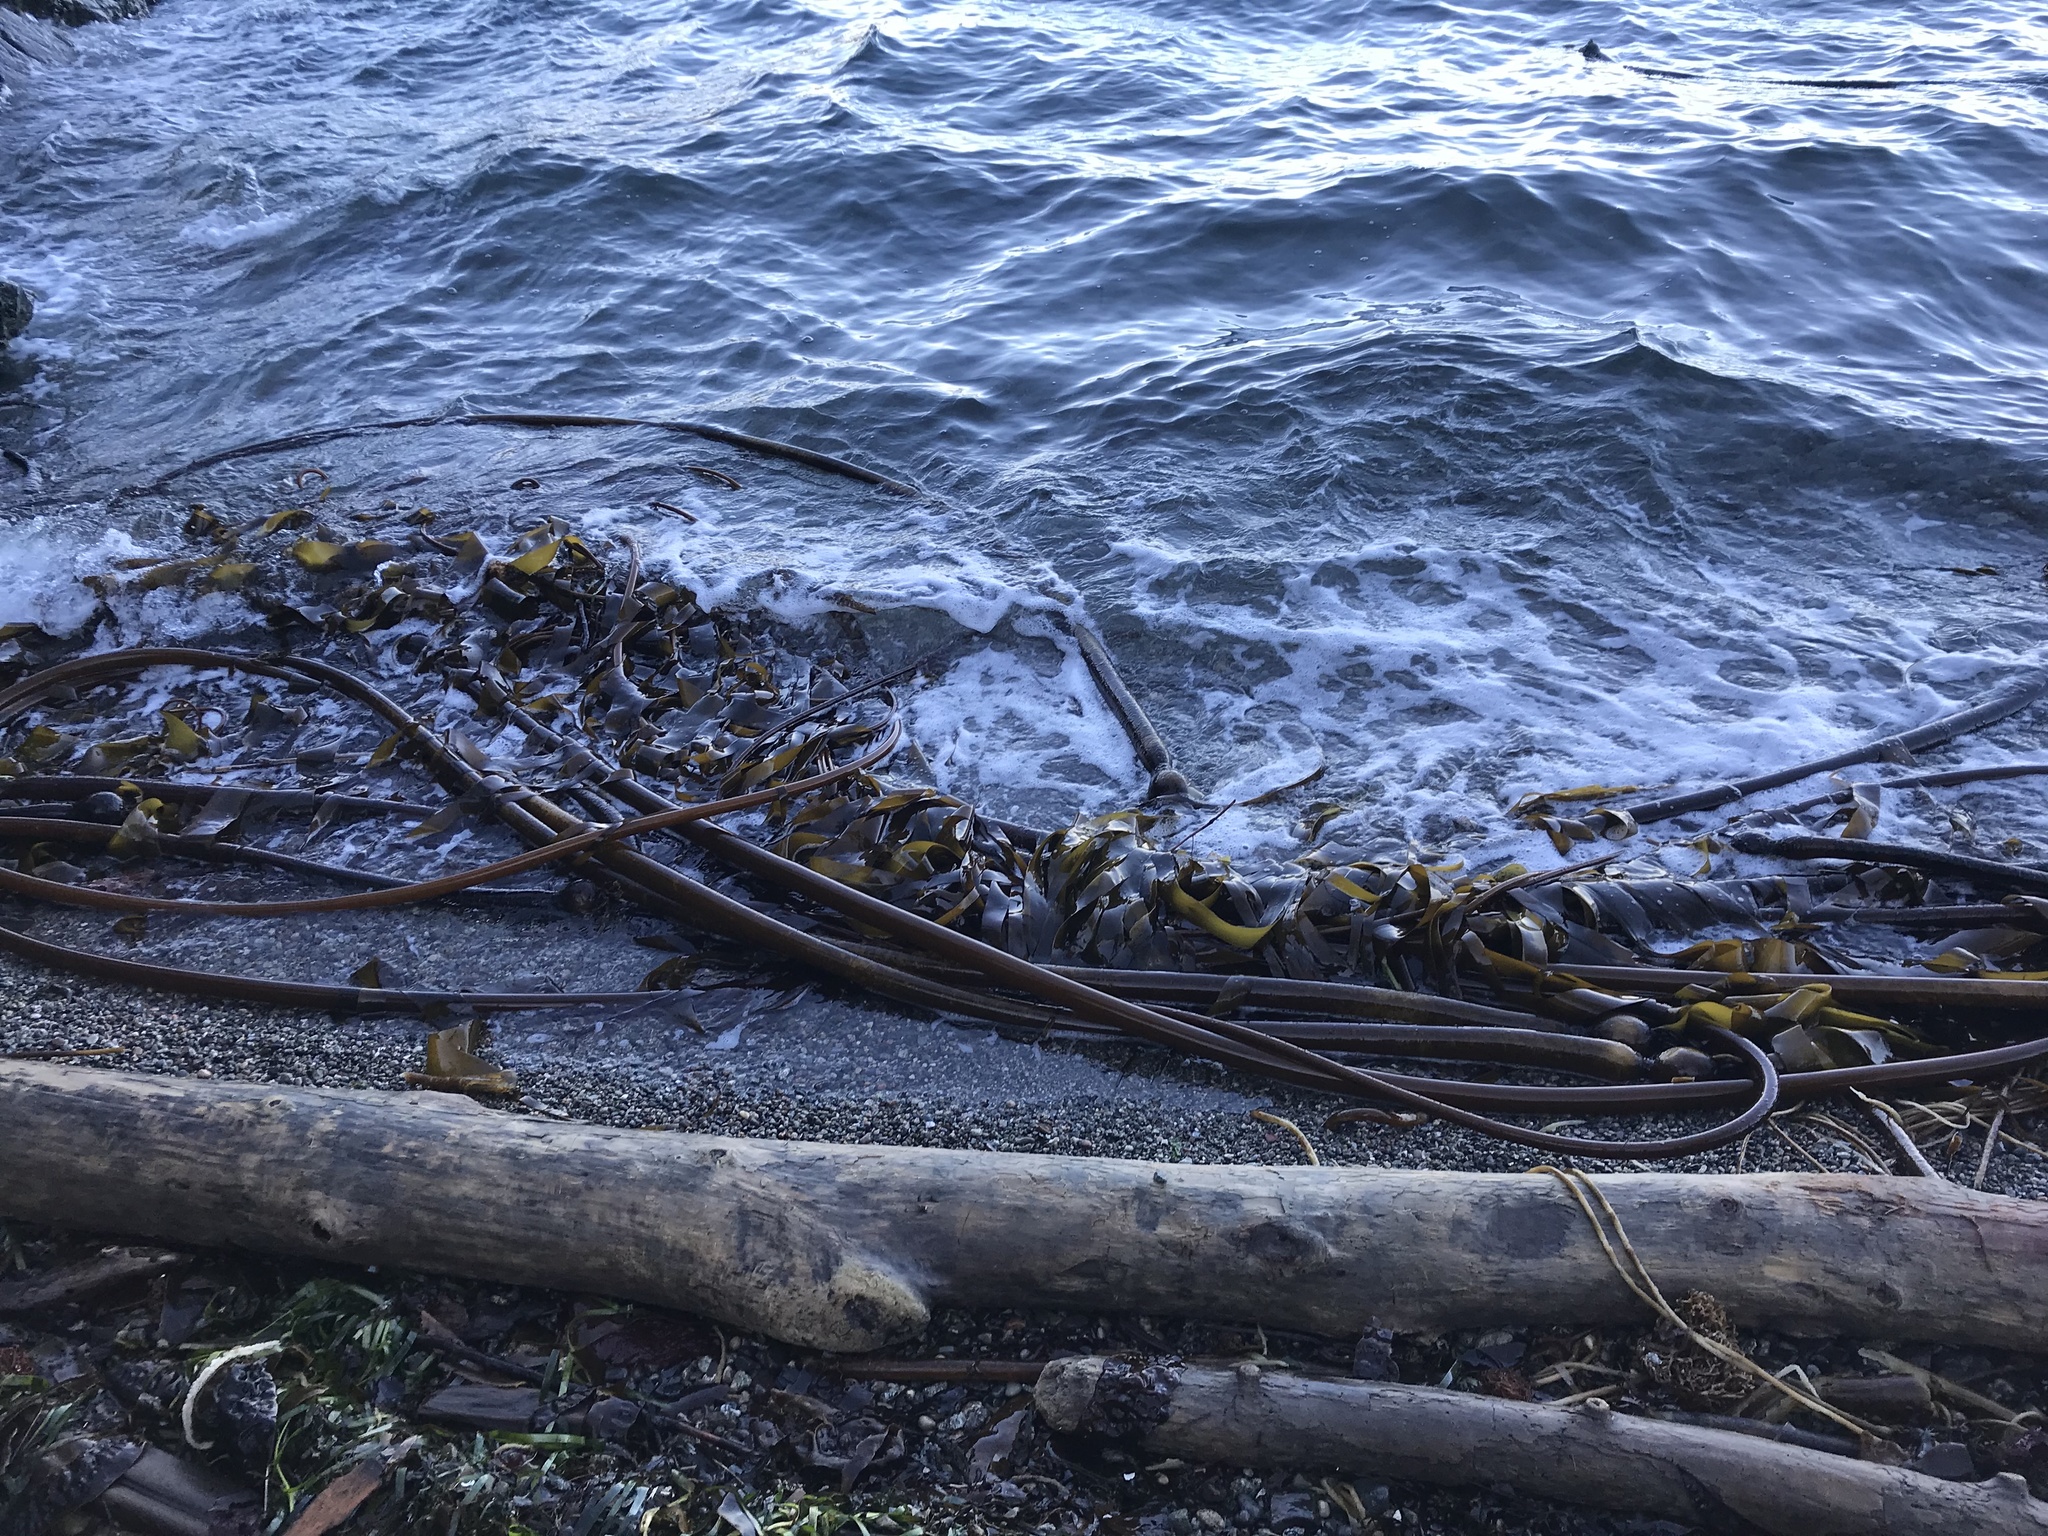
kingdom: Chromista
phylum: Ochrophyta
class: Phaeophyceae
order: Laminariales
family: Laminariaceae
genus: Nereocystis
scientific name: Nereocystis luetkeana
